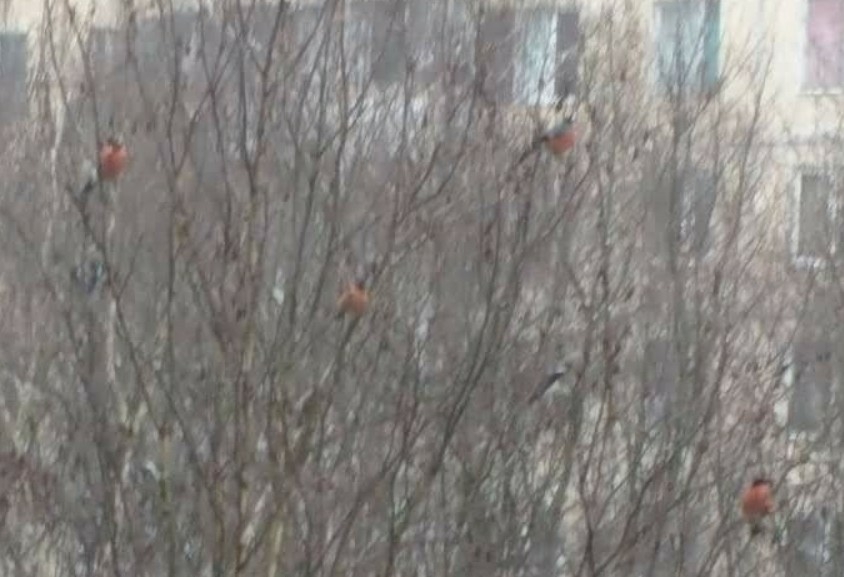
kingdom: Animalia
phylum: Chordata
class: Aves
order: Passeriformes
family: Fringillidae
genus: Pyrrhula
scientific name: Pyrrhula pyrrhula
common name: Eurasian bullfinch
